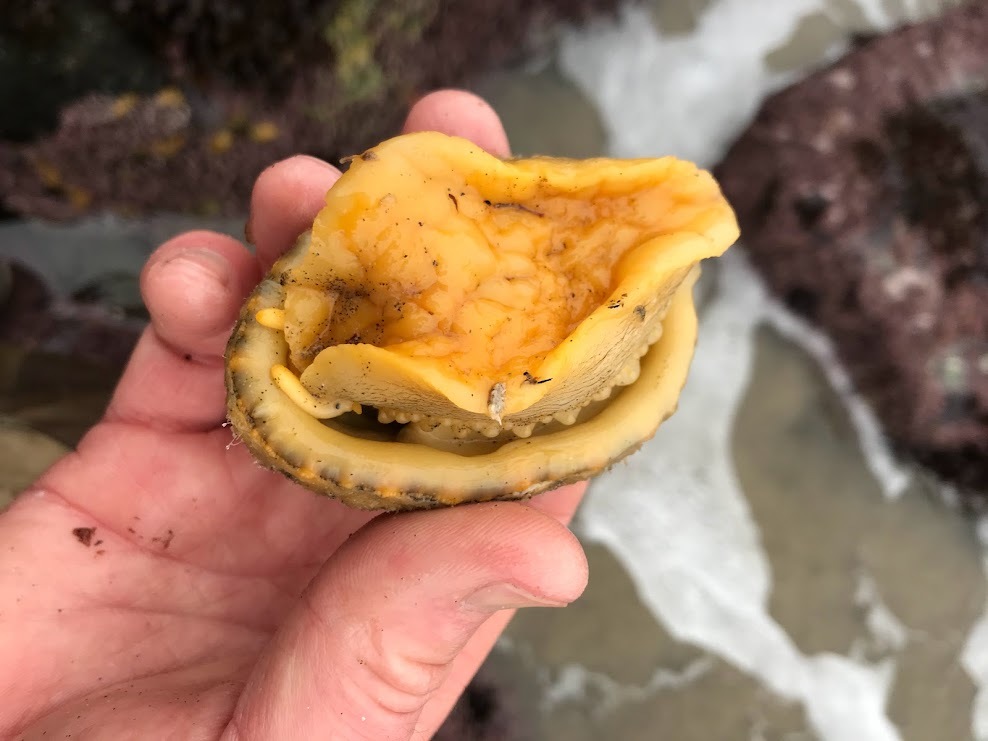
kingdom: Animalia
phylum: Mollusca
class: Gastropoda
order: Lepetellida
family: Fissurellidae
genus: Megathura
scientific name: Megathura crenulata
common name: Giant keyhole limpet
